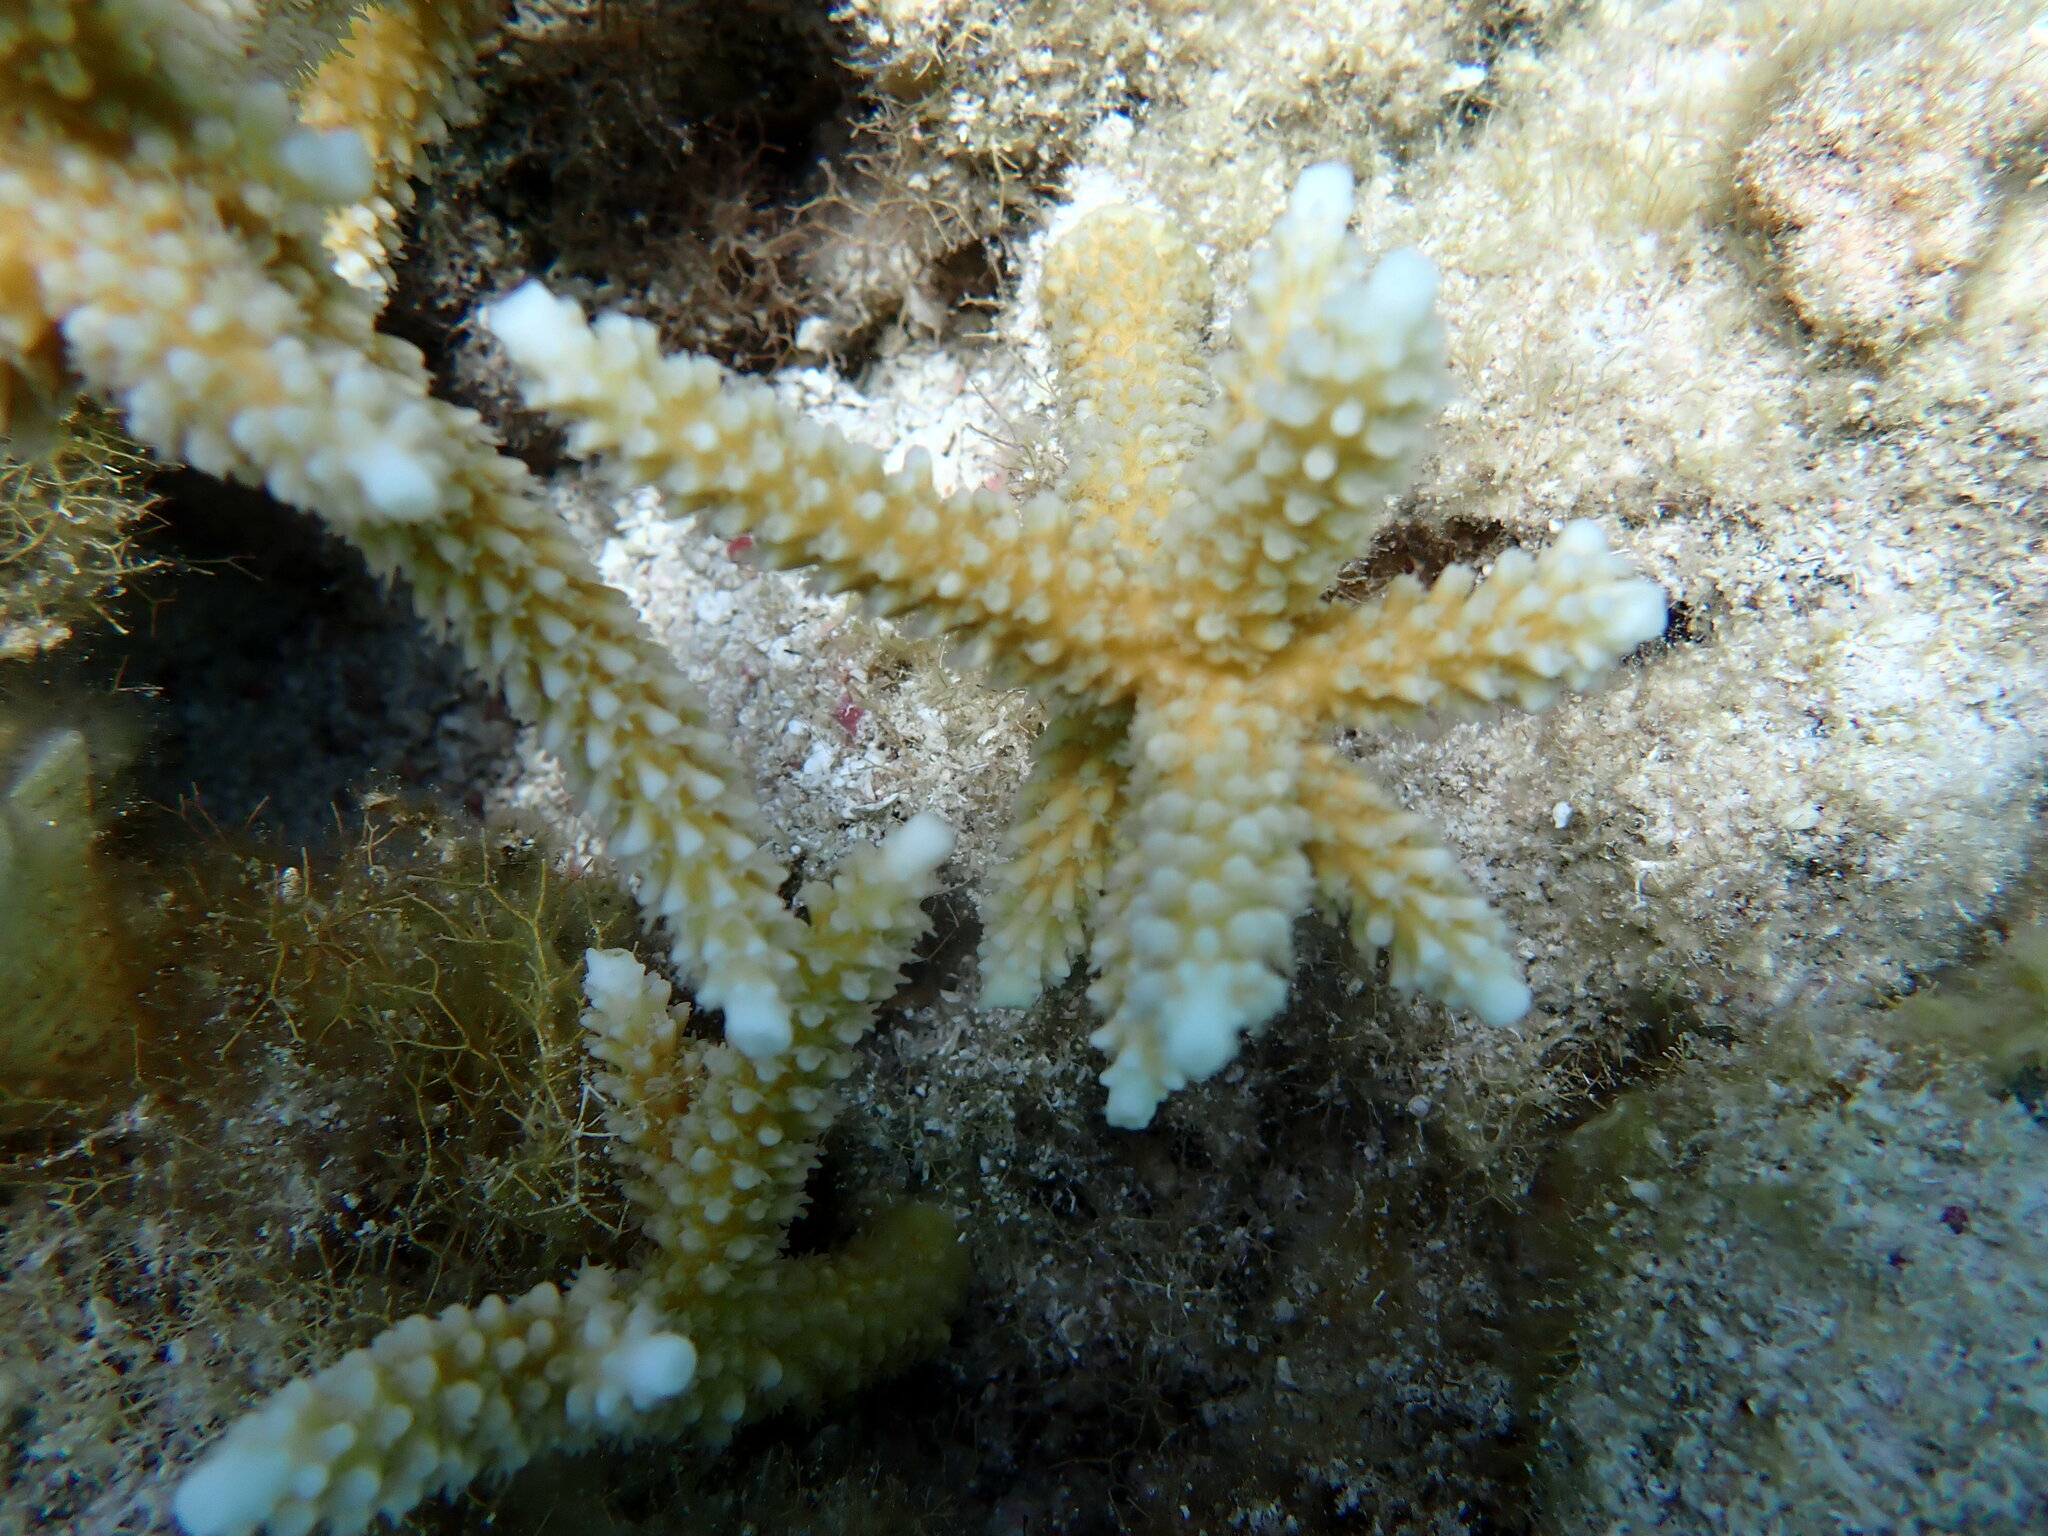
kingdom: Animalia
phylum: Cnidaria
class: Anthozoa
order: Scleractinia
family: Acroporidae
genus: Acropora
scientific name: Acropora cervicornis
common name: Staghorn coral
